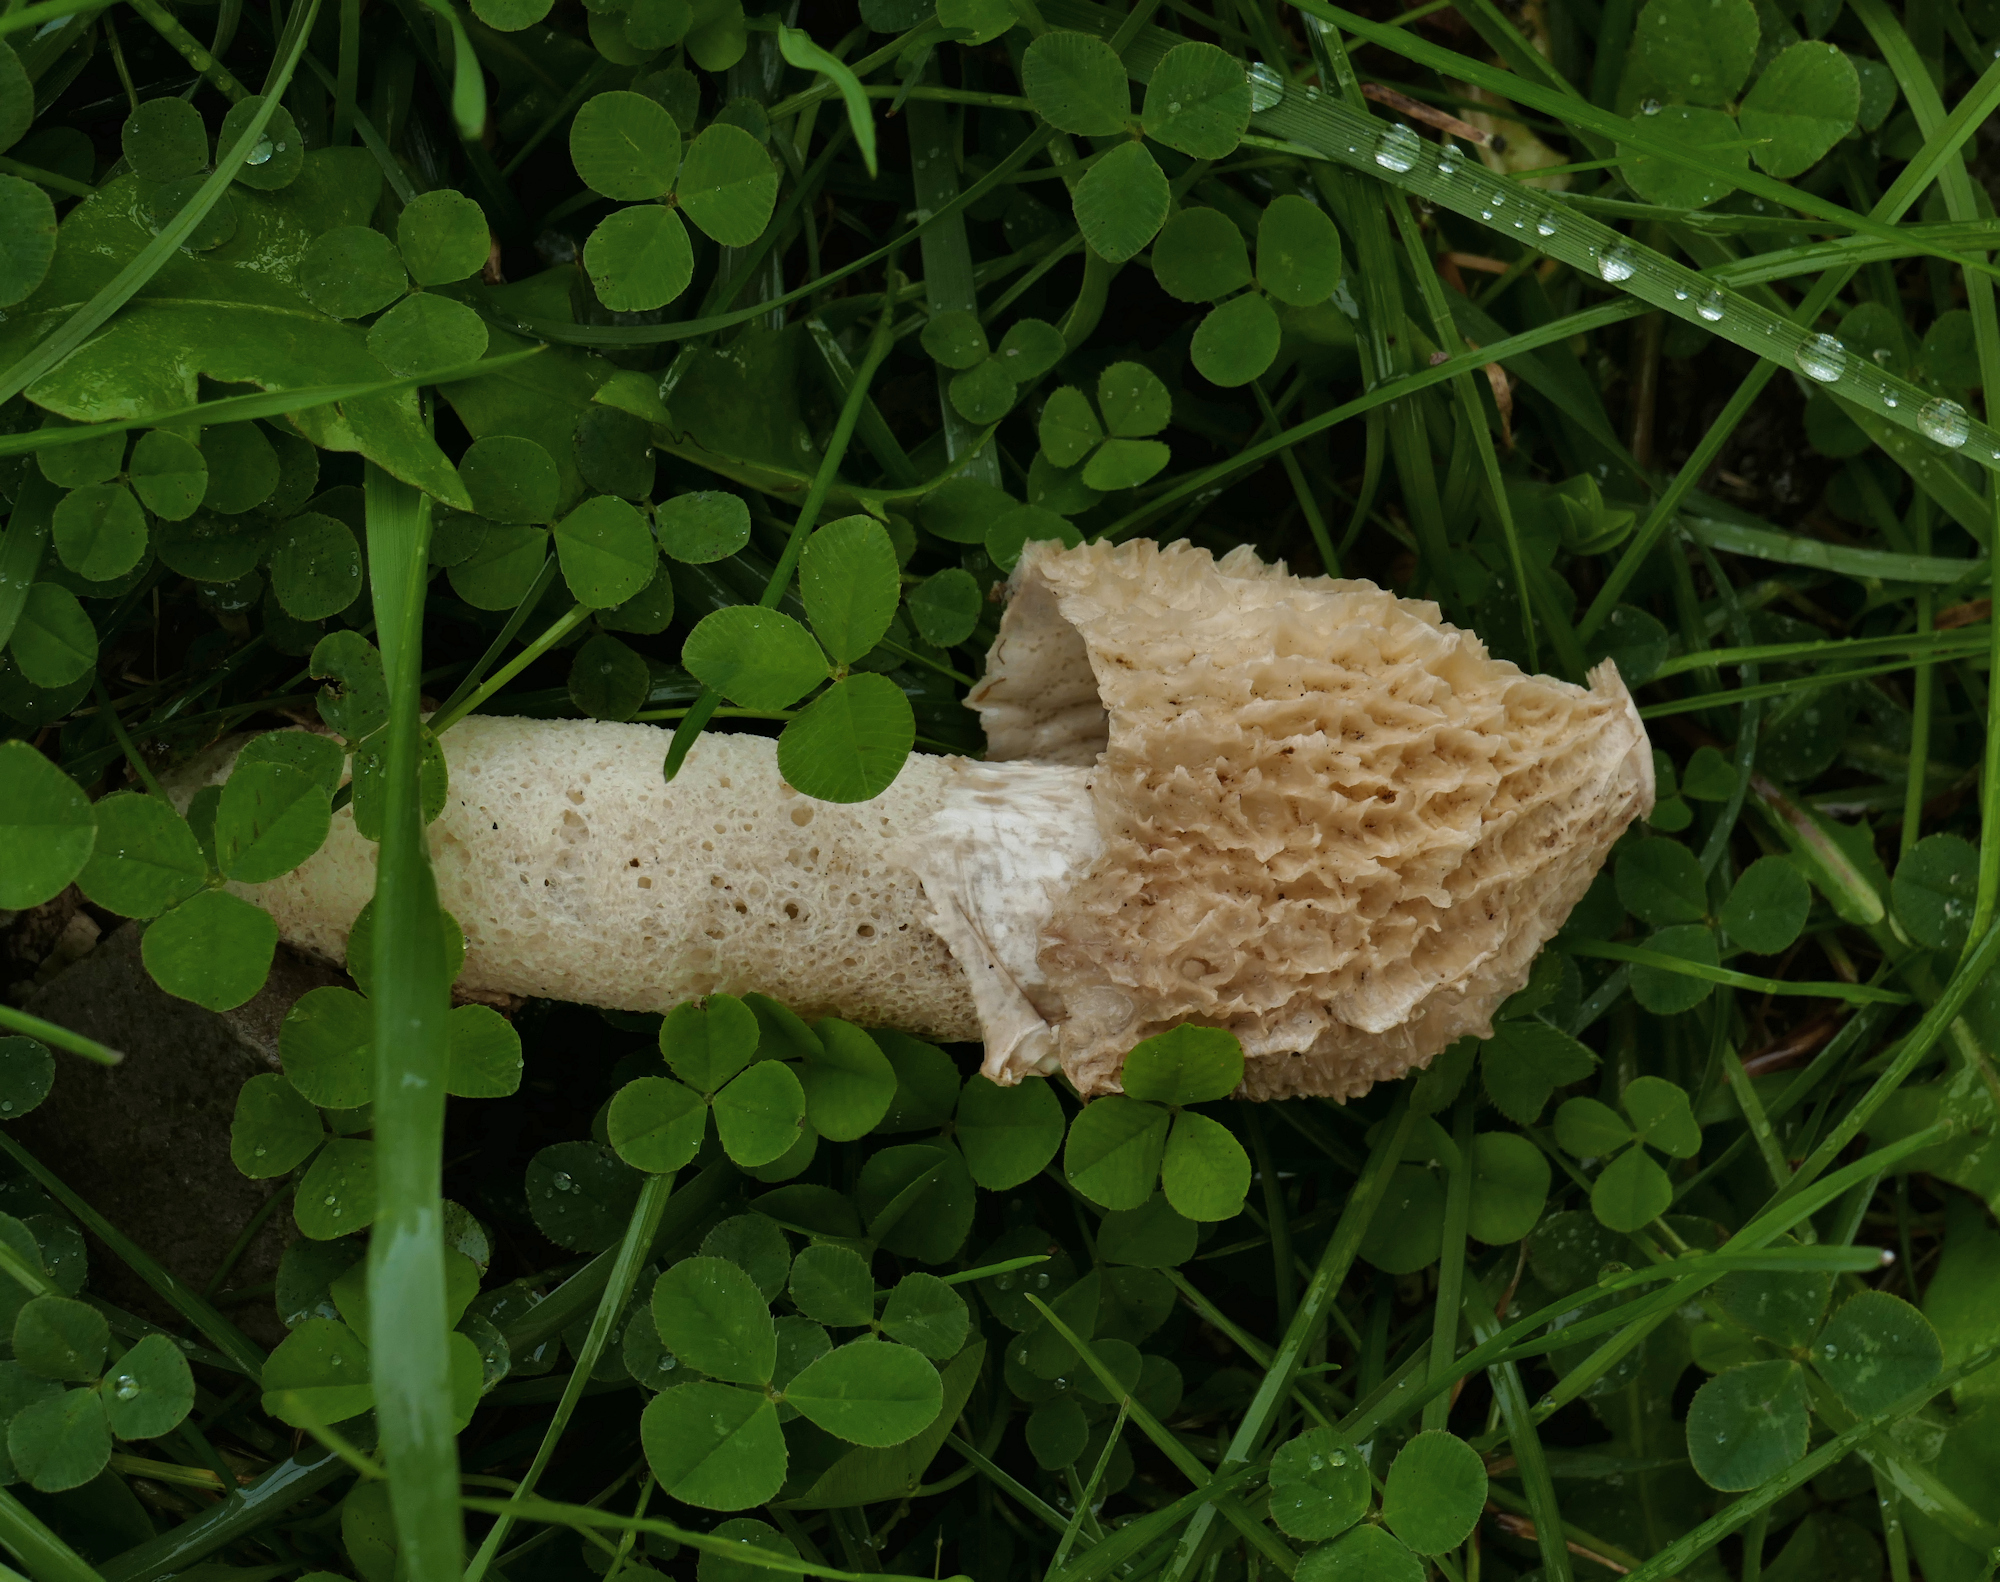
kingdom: Fungi
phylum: Basidiomycota
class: Agaricomycetes
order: Phallales
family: Phallaceae
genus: Phallus
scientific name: Phallus impudicus
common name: Common stinkhorn
